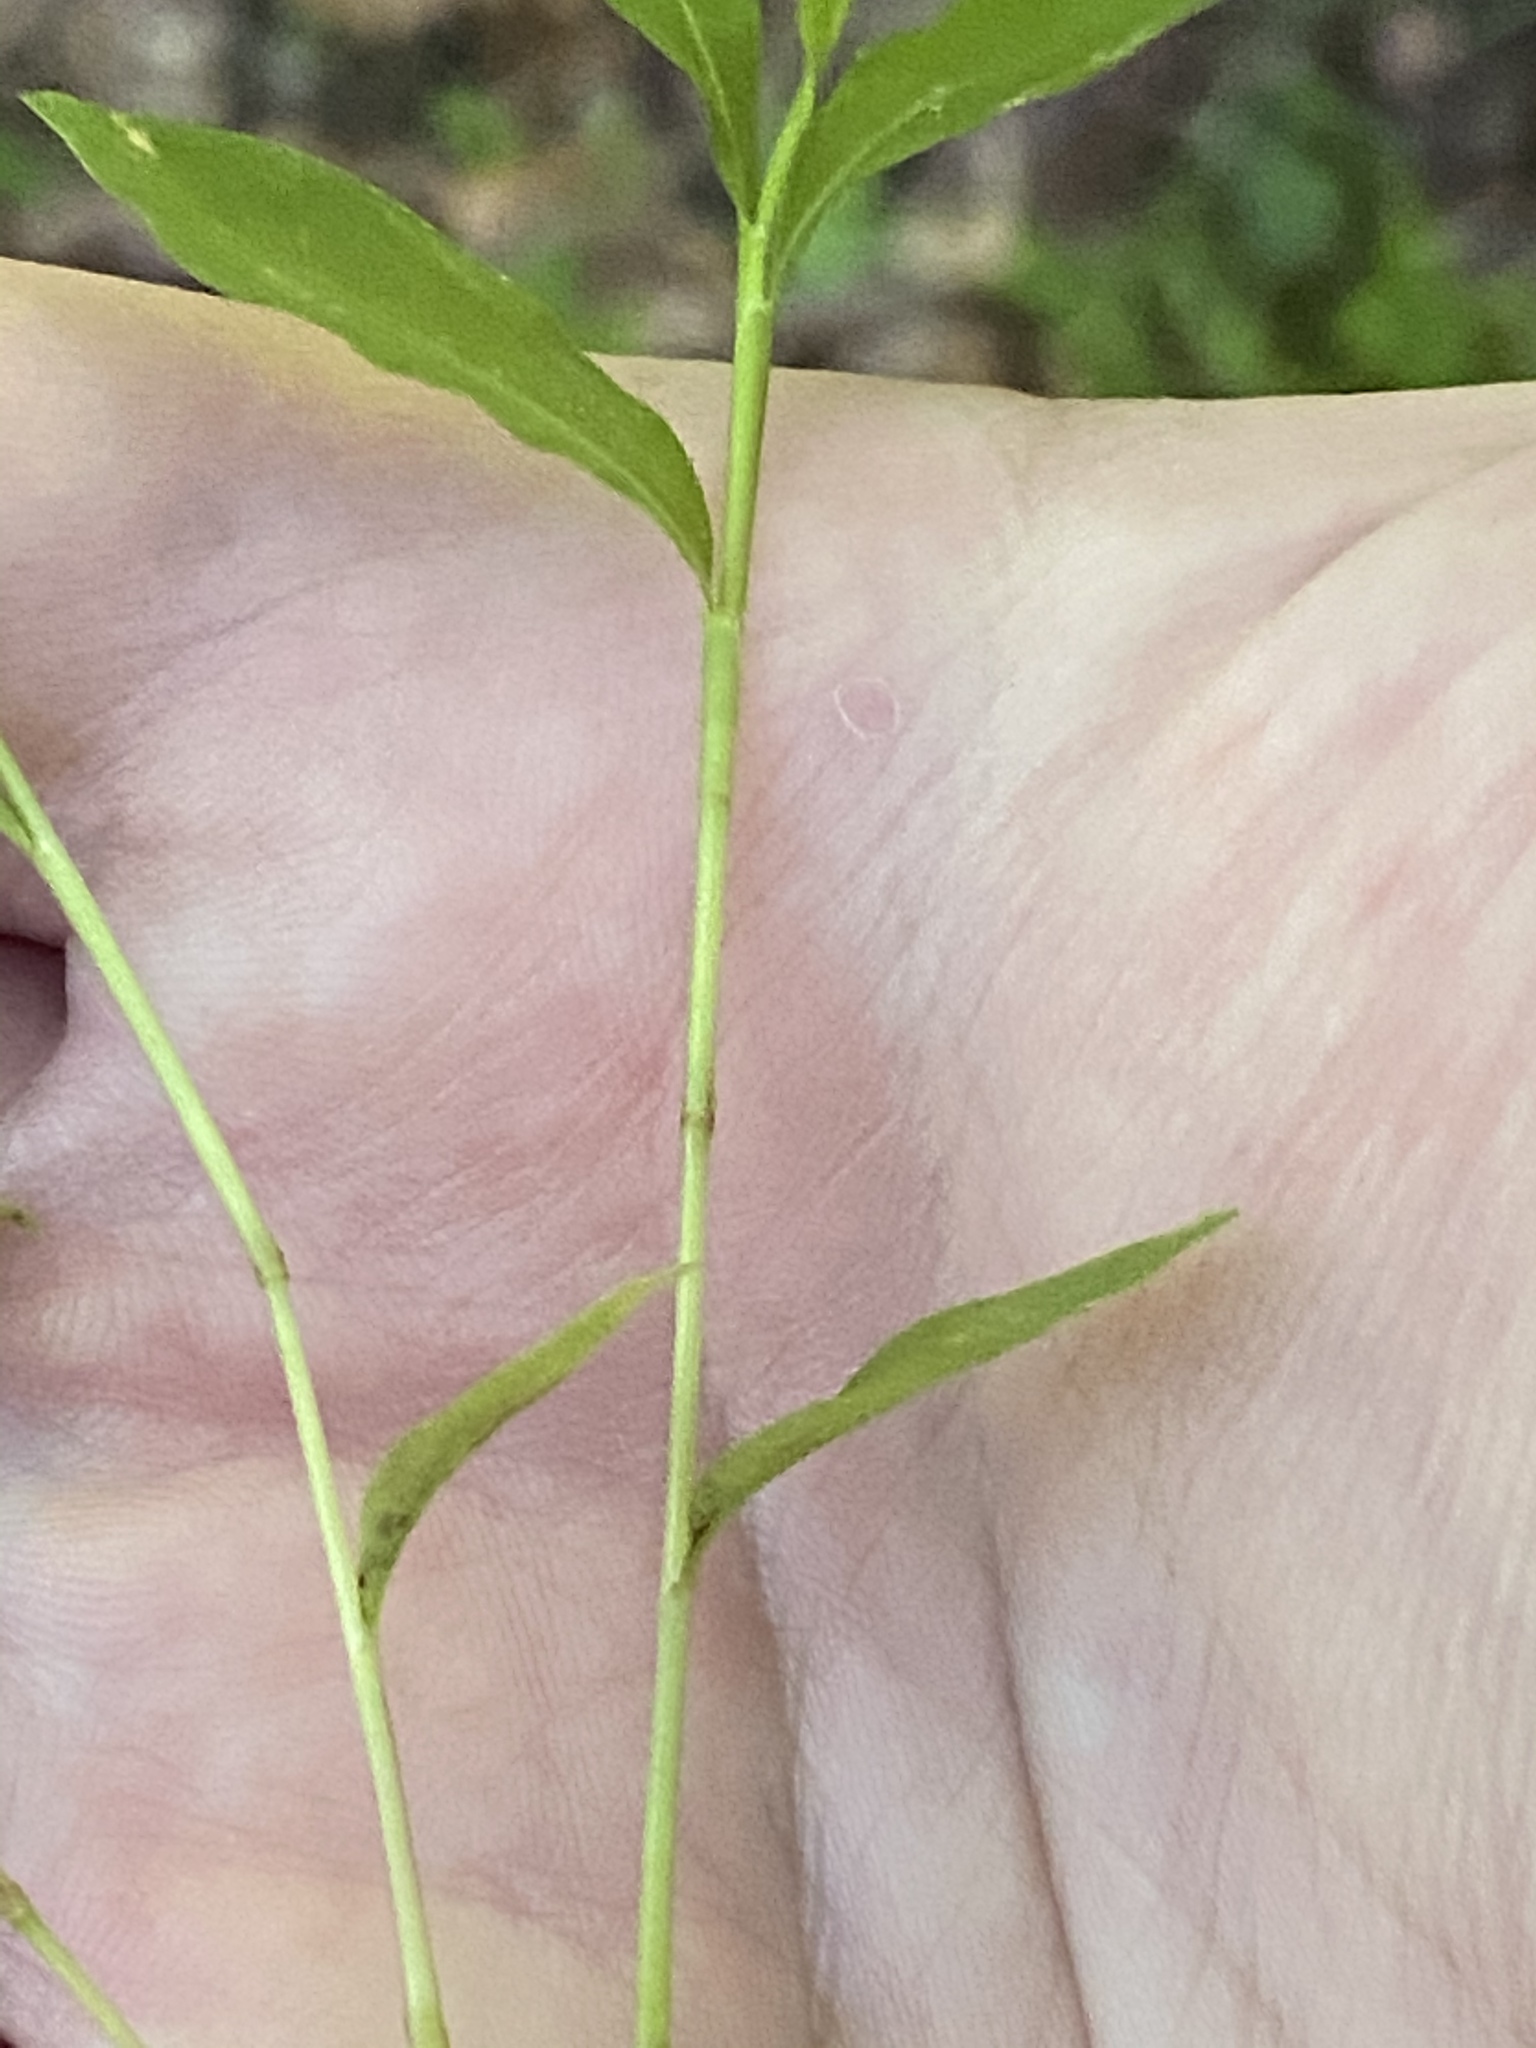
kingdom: Plantae
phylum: Tracheophyta
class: Liliopsida
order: Poales
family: Poaceae
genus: Microstegium
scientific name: Microstegium vimineum
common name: Japanese stiltgrass
